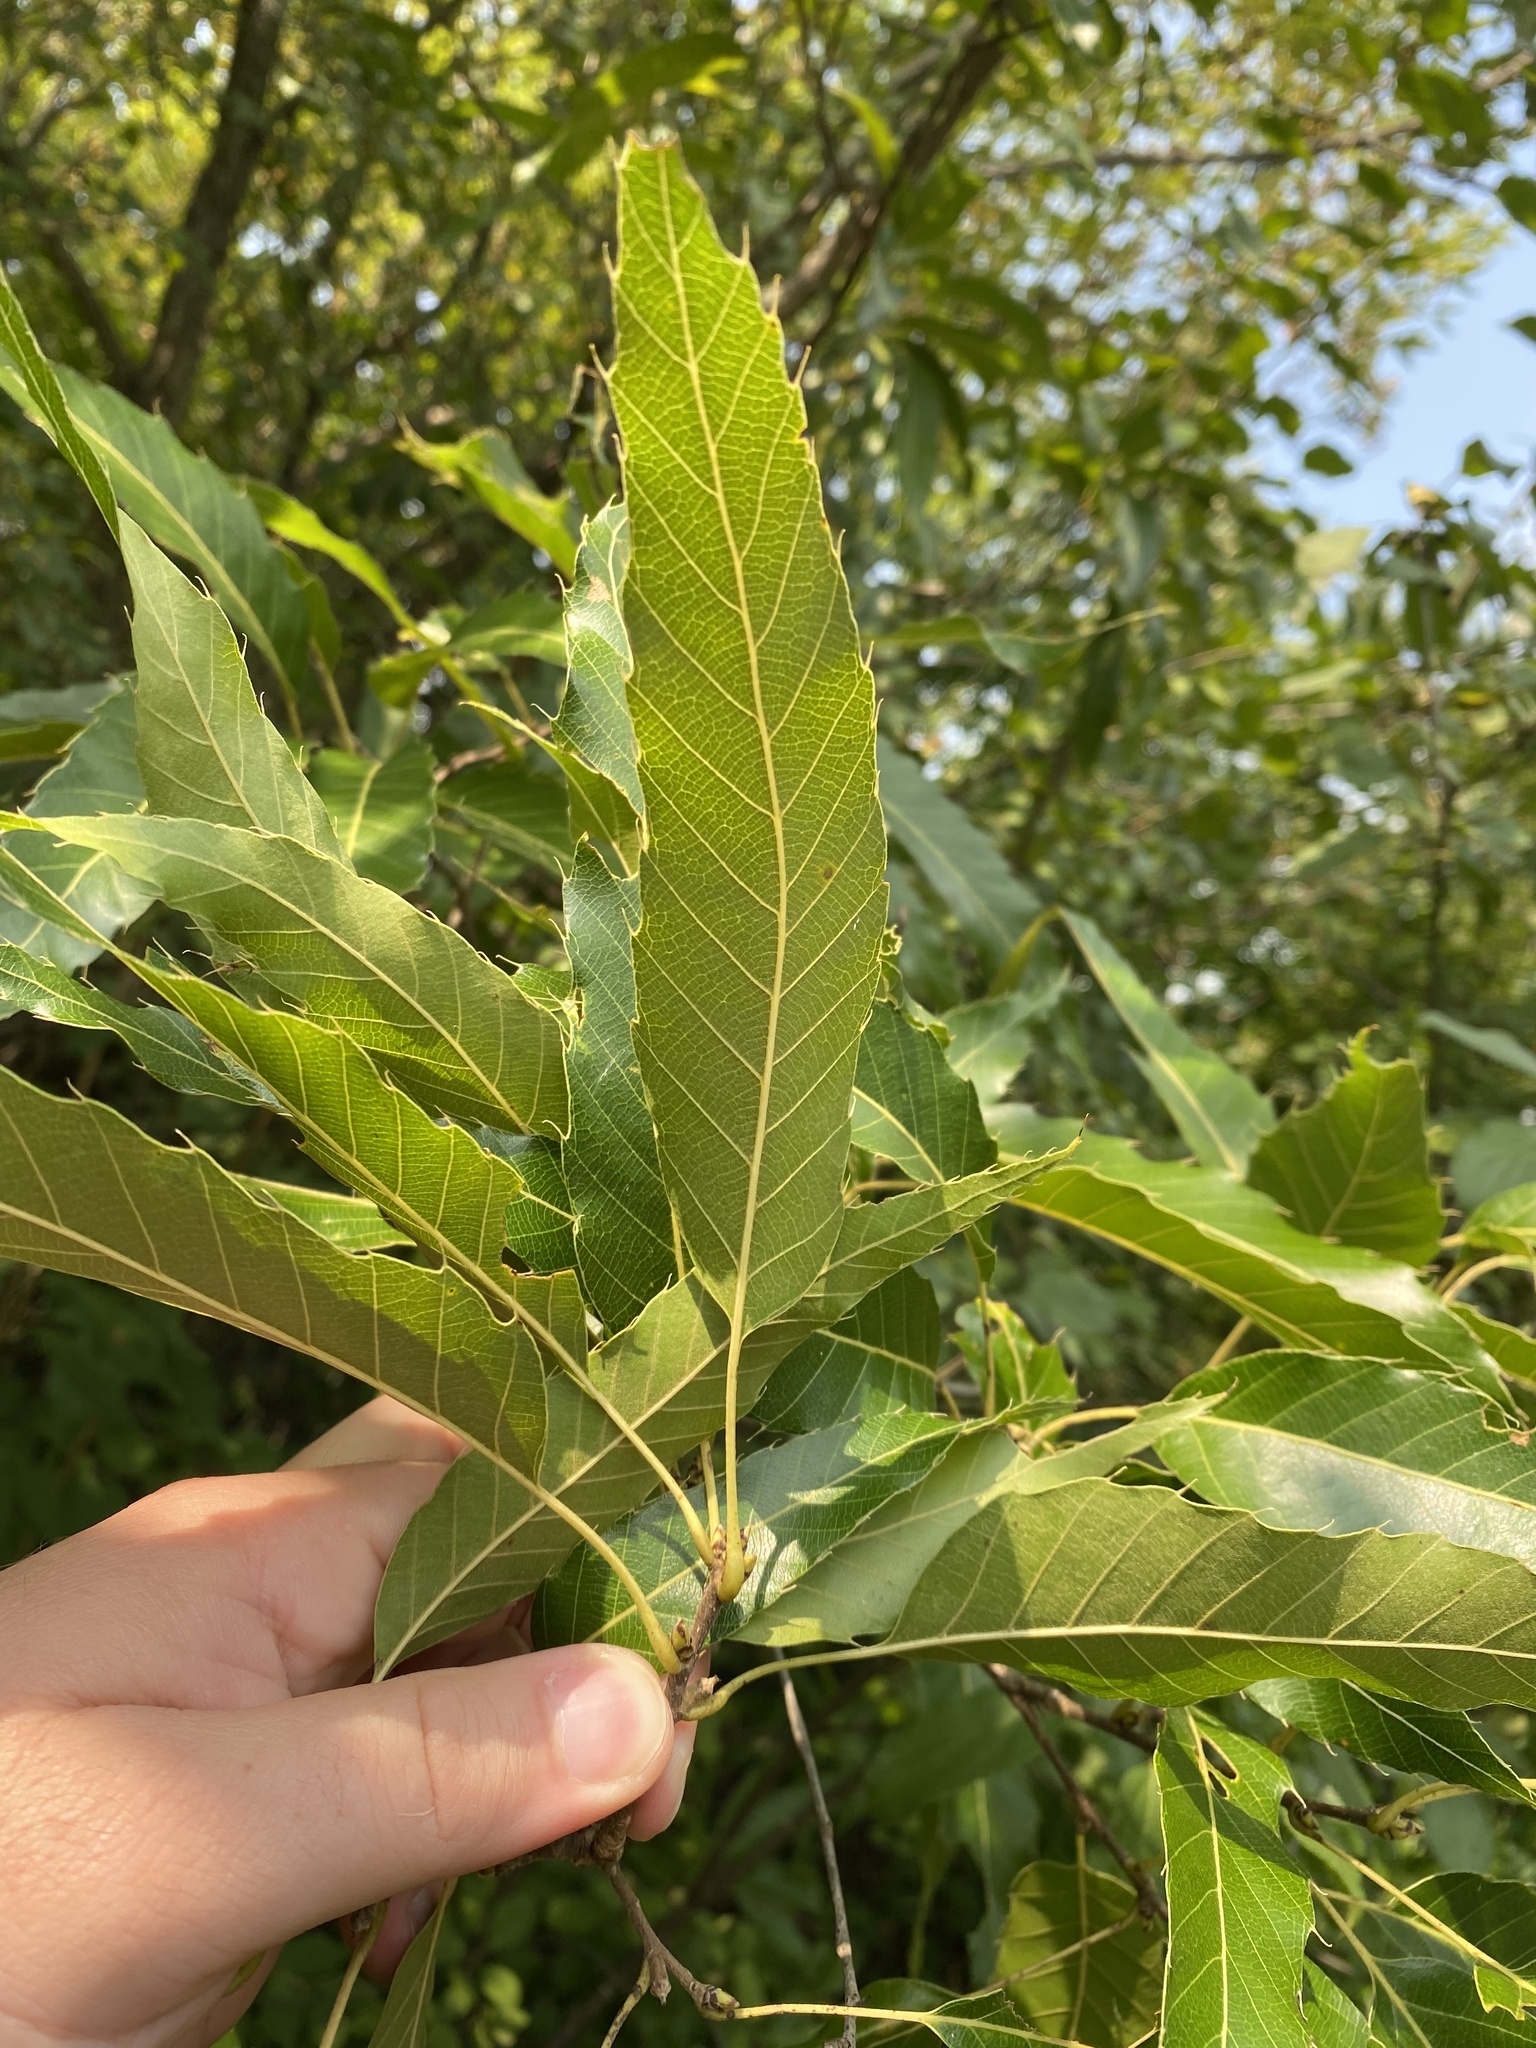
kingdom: Plantae
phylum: Tracheophyta
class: Magnoliopsida
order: Fagales
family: Fagaceae
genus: Quercus
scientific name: Quercus acutissima
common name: Sawtooth oak
